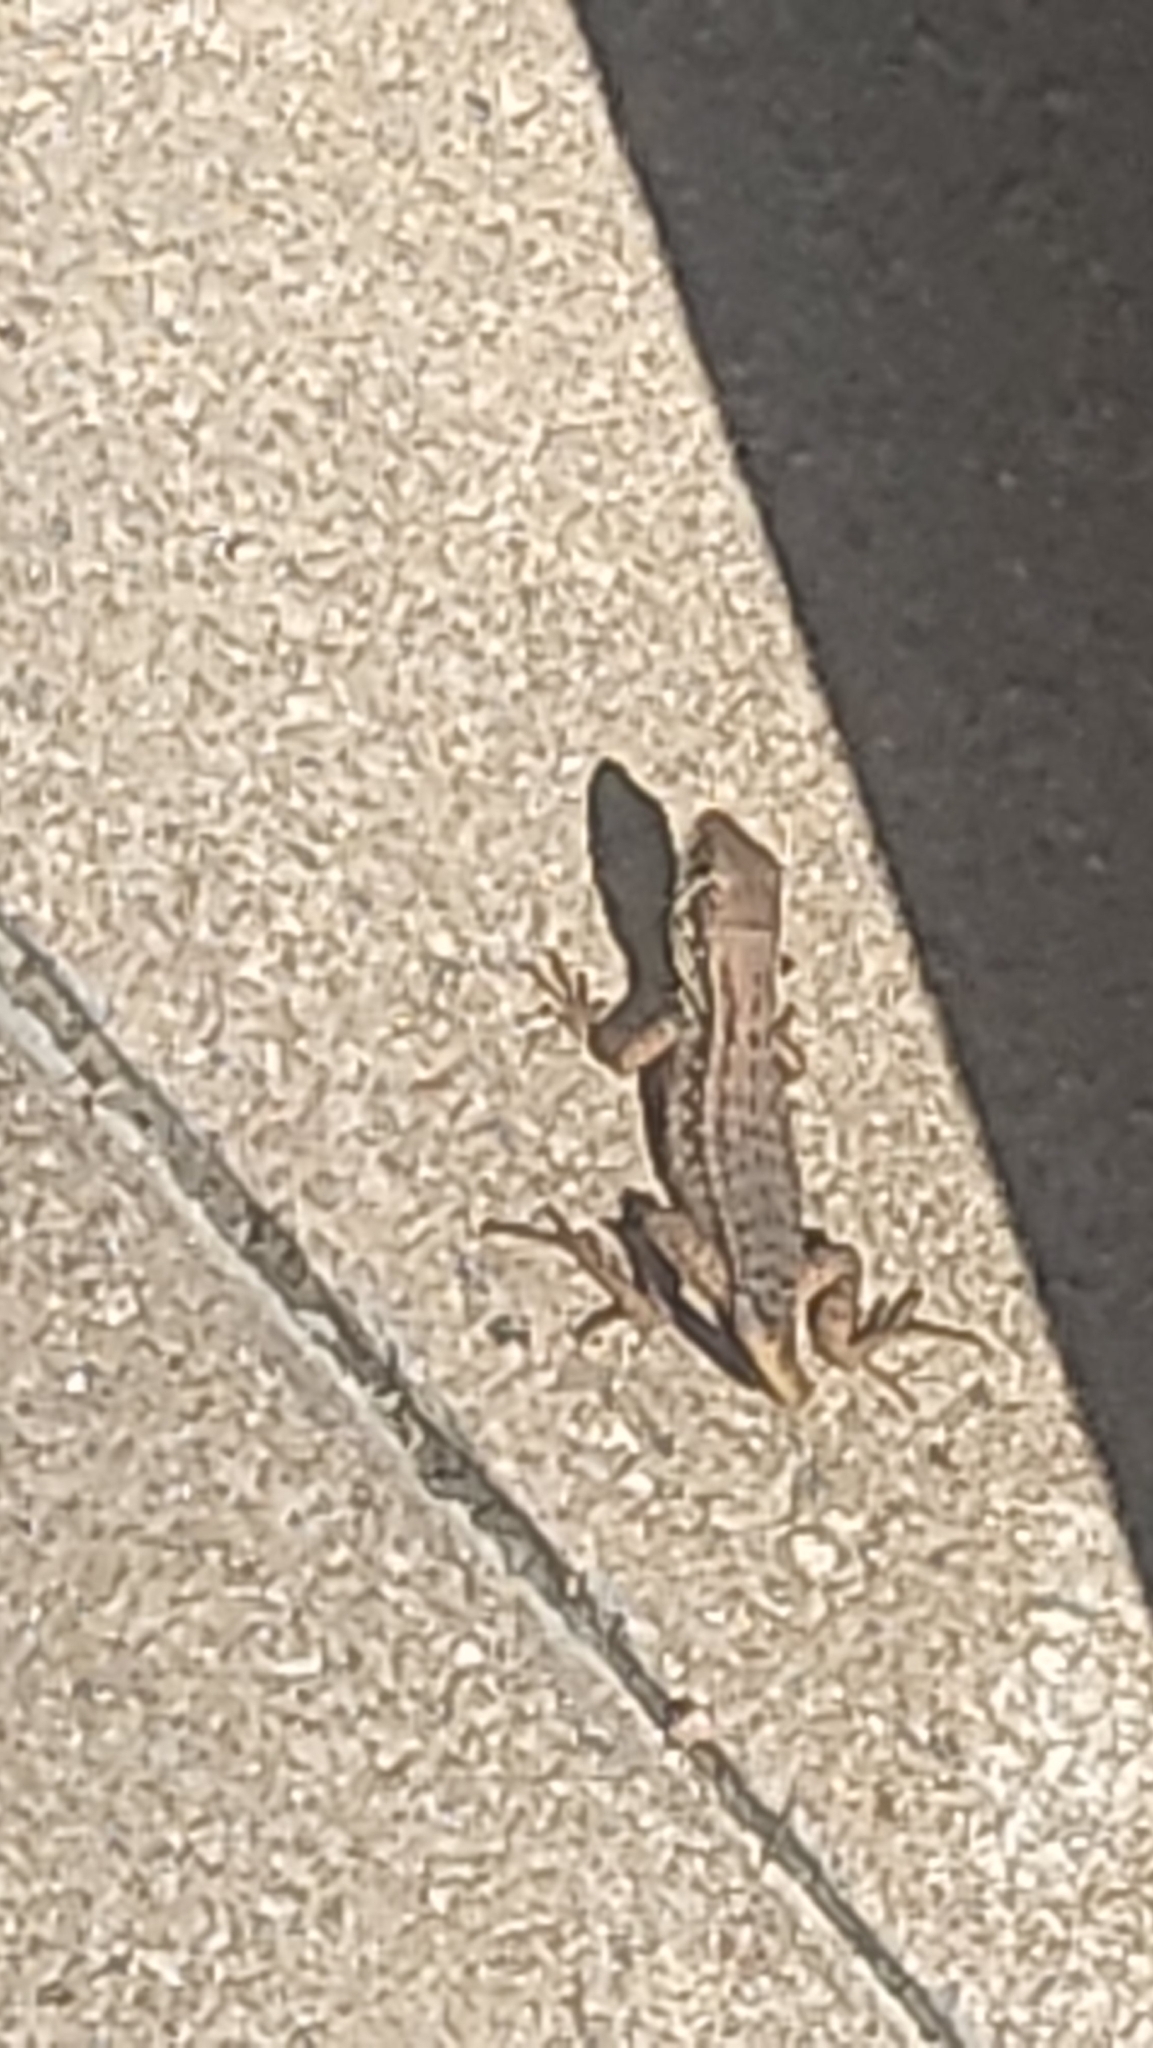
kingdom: Animalia
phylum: Chordata
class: Squamata
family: Leiocephalidae
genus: Leiocephalus
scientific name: Leiocephalus carinatus
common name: Northern curly-tailed lizard
